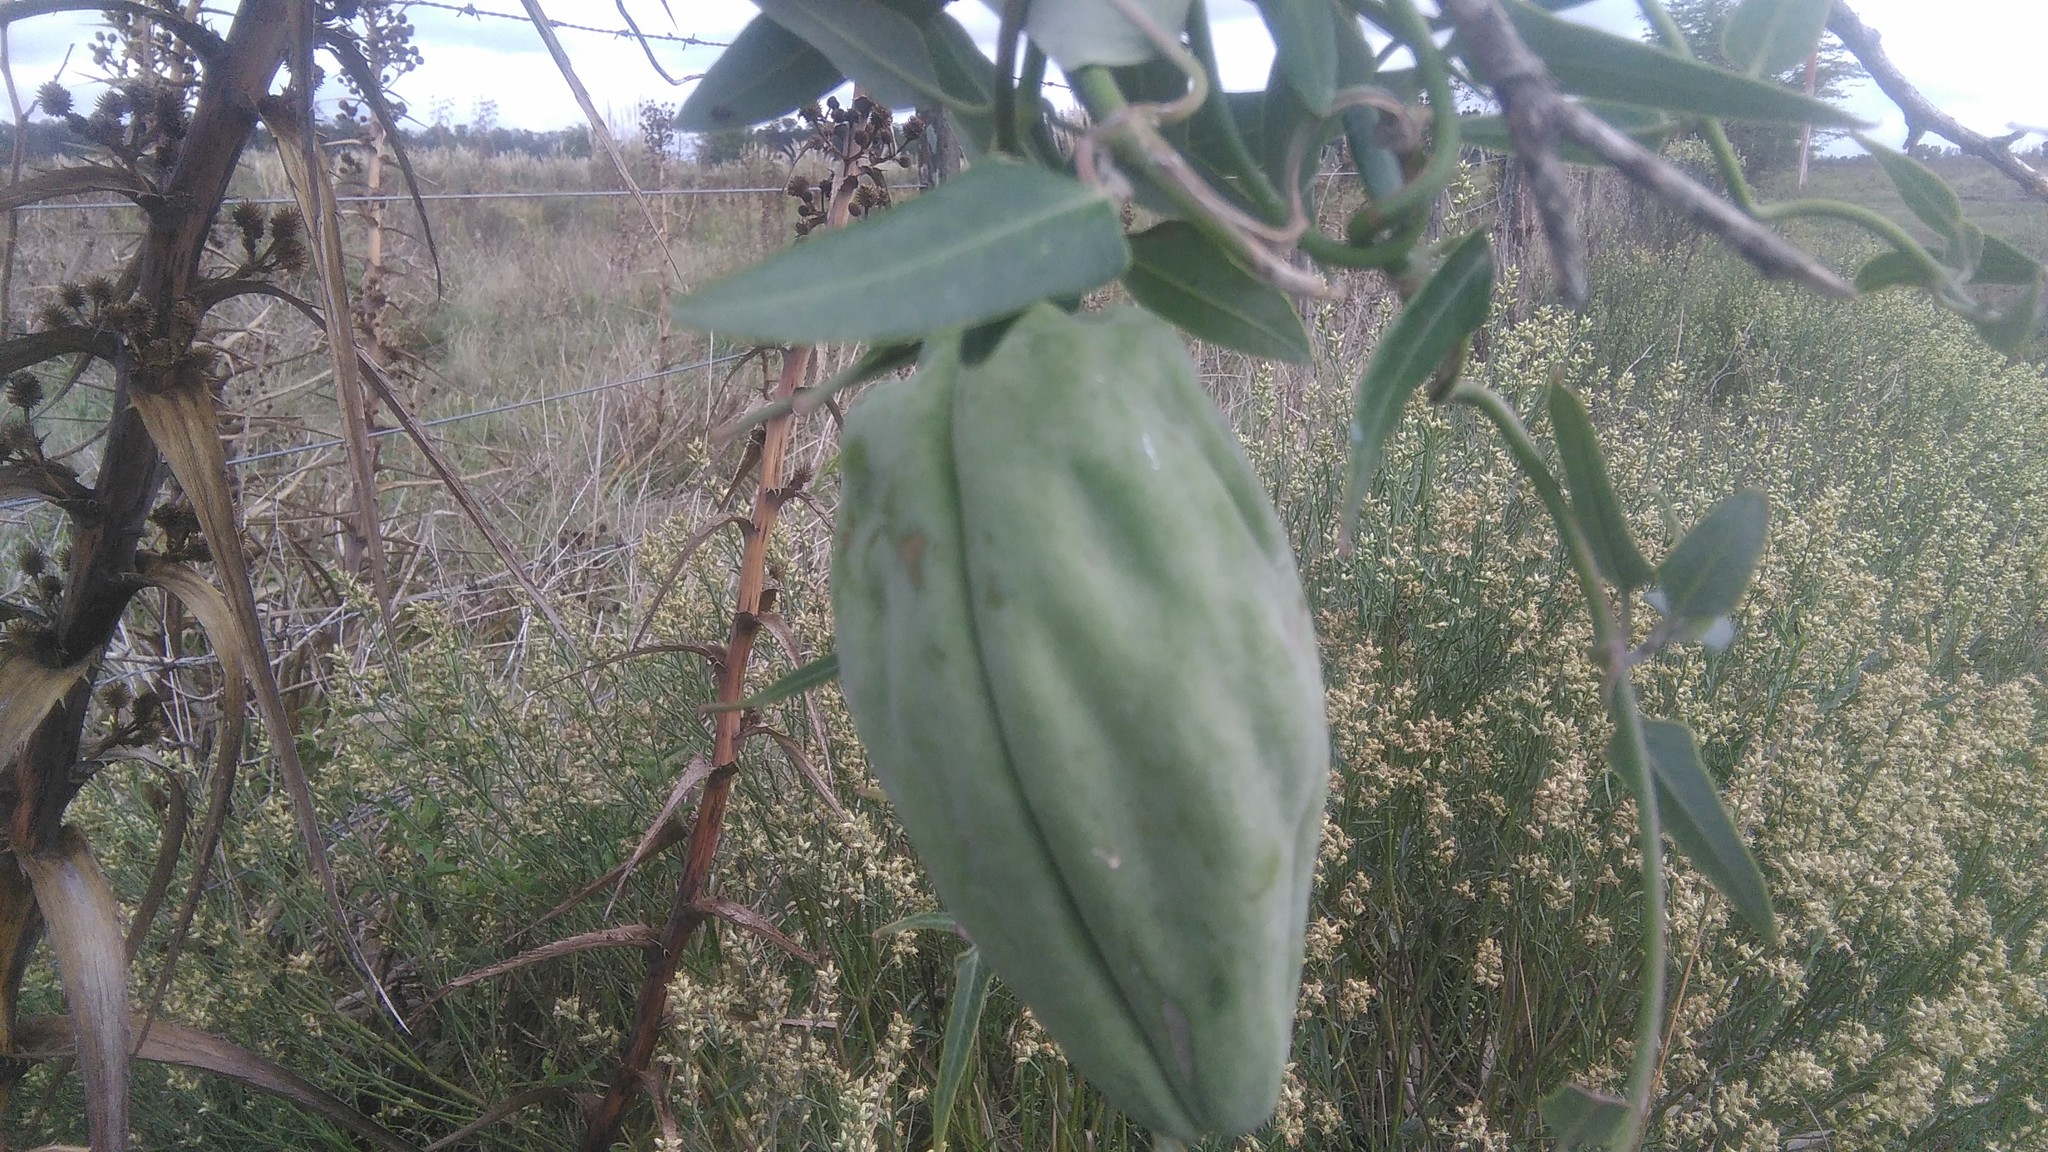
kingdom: Plantae
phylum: Tracheophyta
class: Magnoliopsida
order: Gentianales
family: Apocynaceae
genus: Araujia
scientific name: Araujia sericifera
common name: White bladderflower
